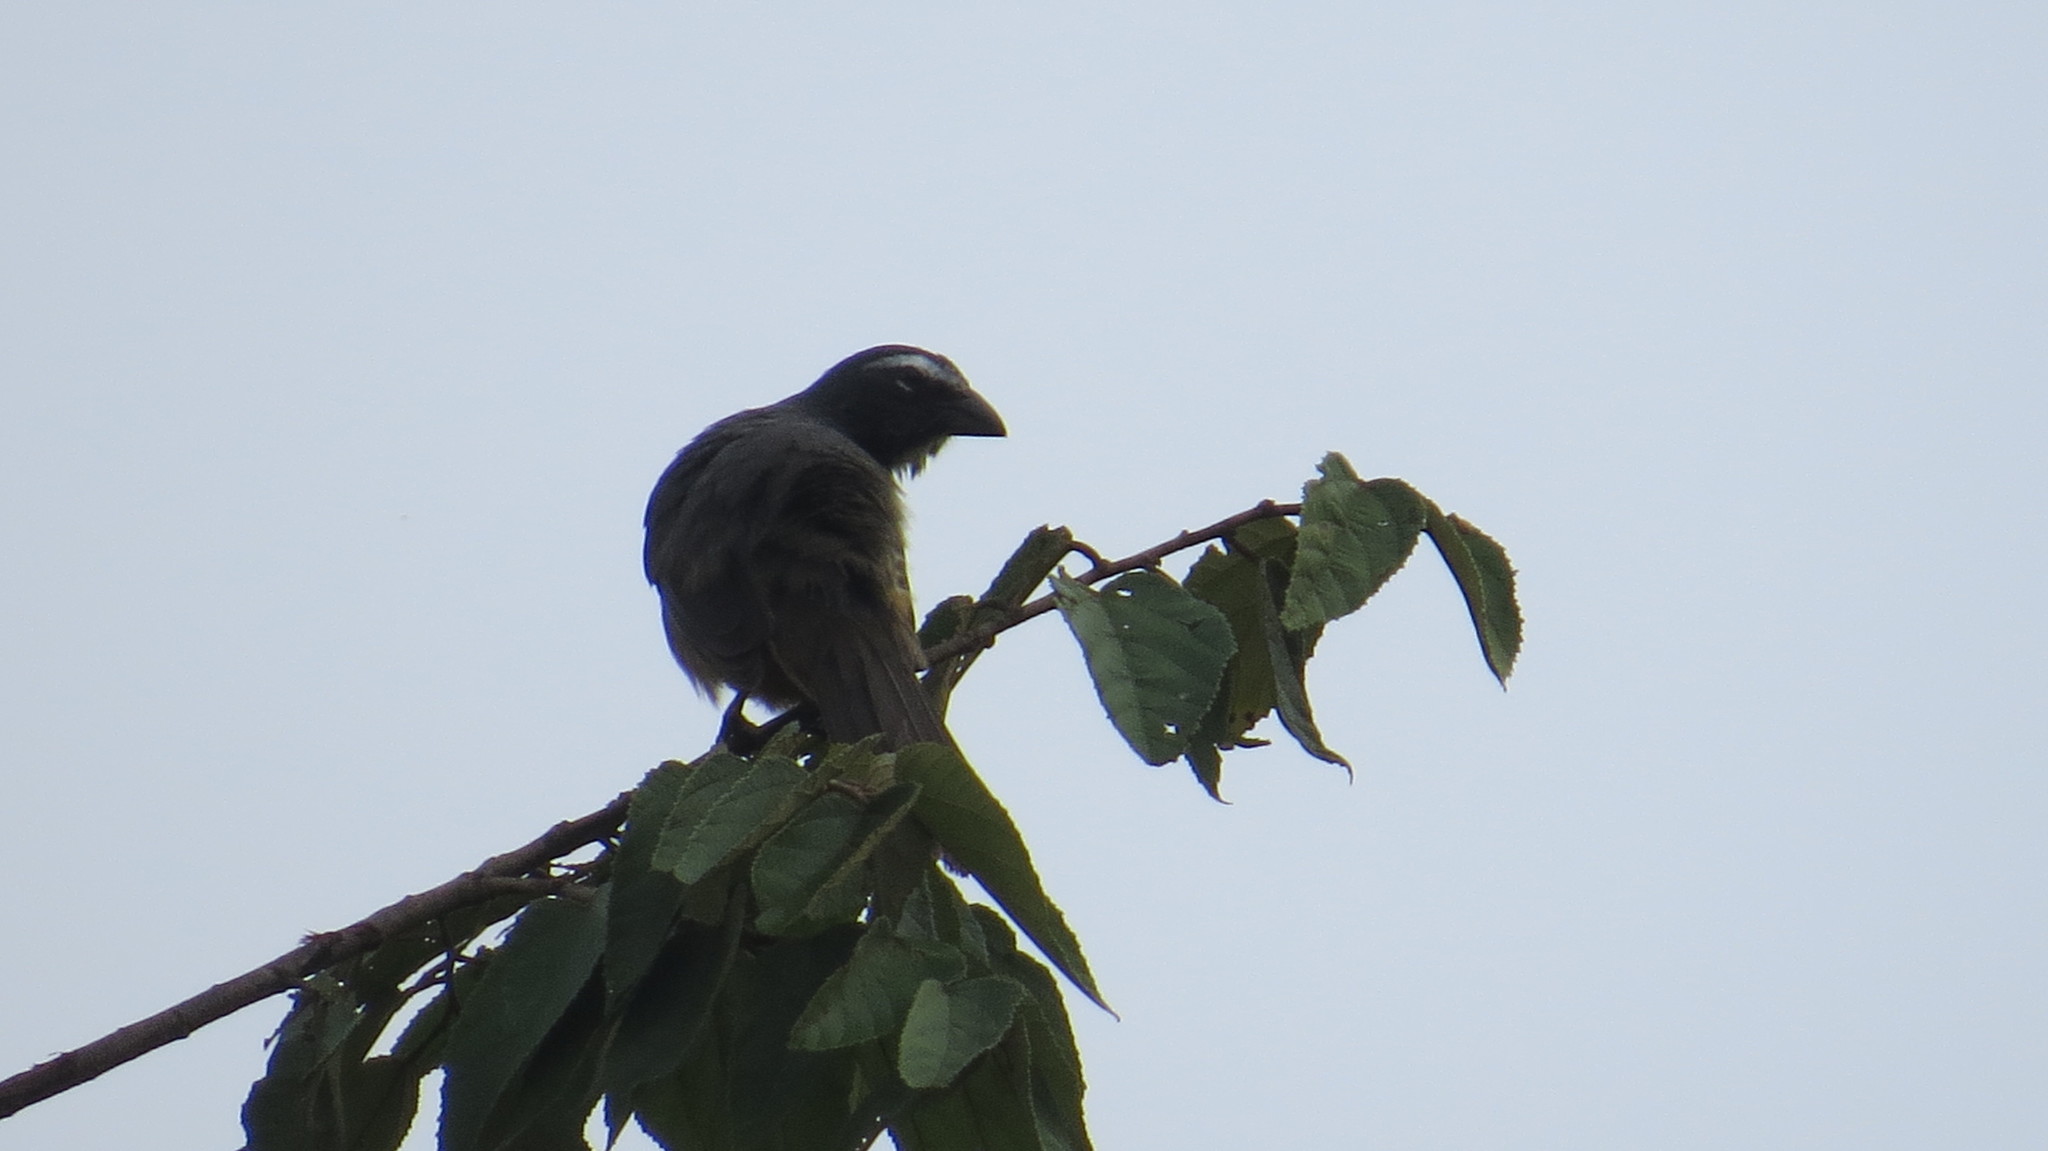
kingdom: Animalia
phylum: Chordata
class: Aves
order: Passeriformes
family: Thraupidae
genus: Saltator
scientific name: Saltator grandis
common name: Cinnamon-bellied saltator
